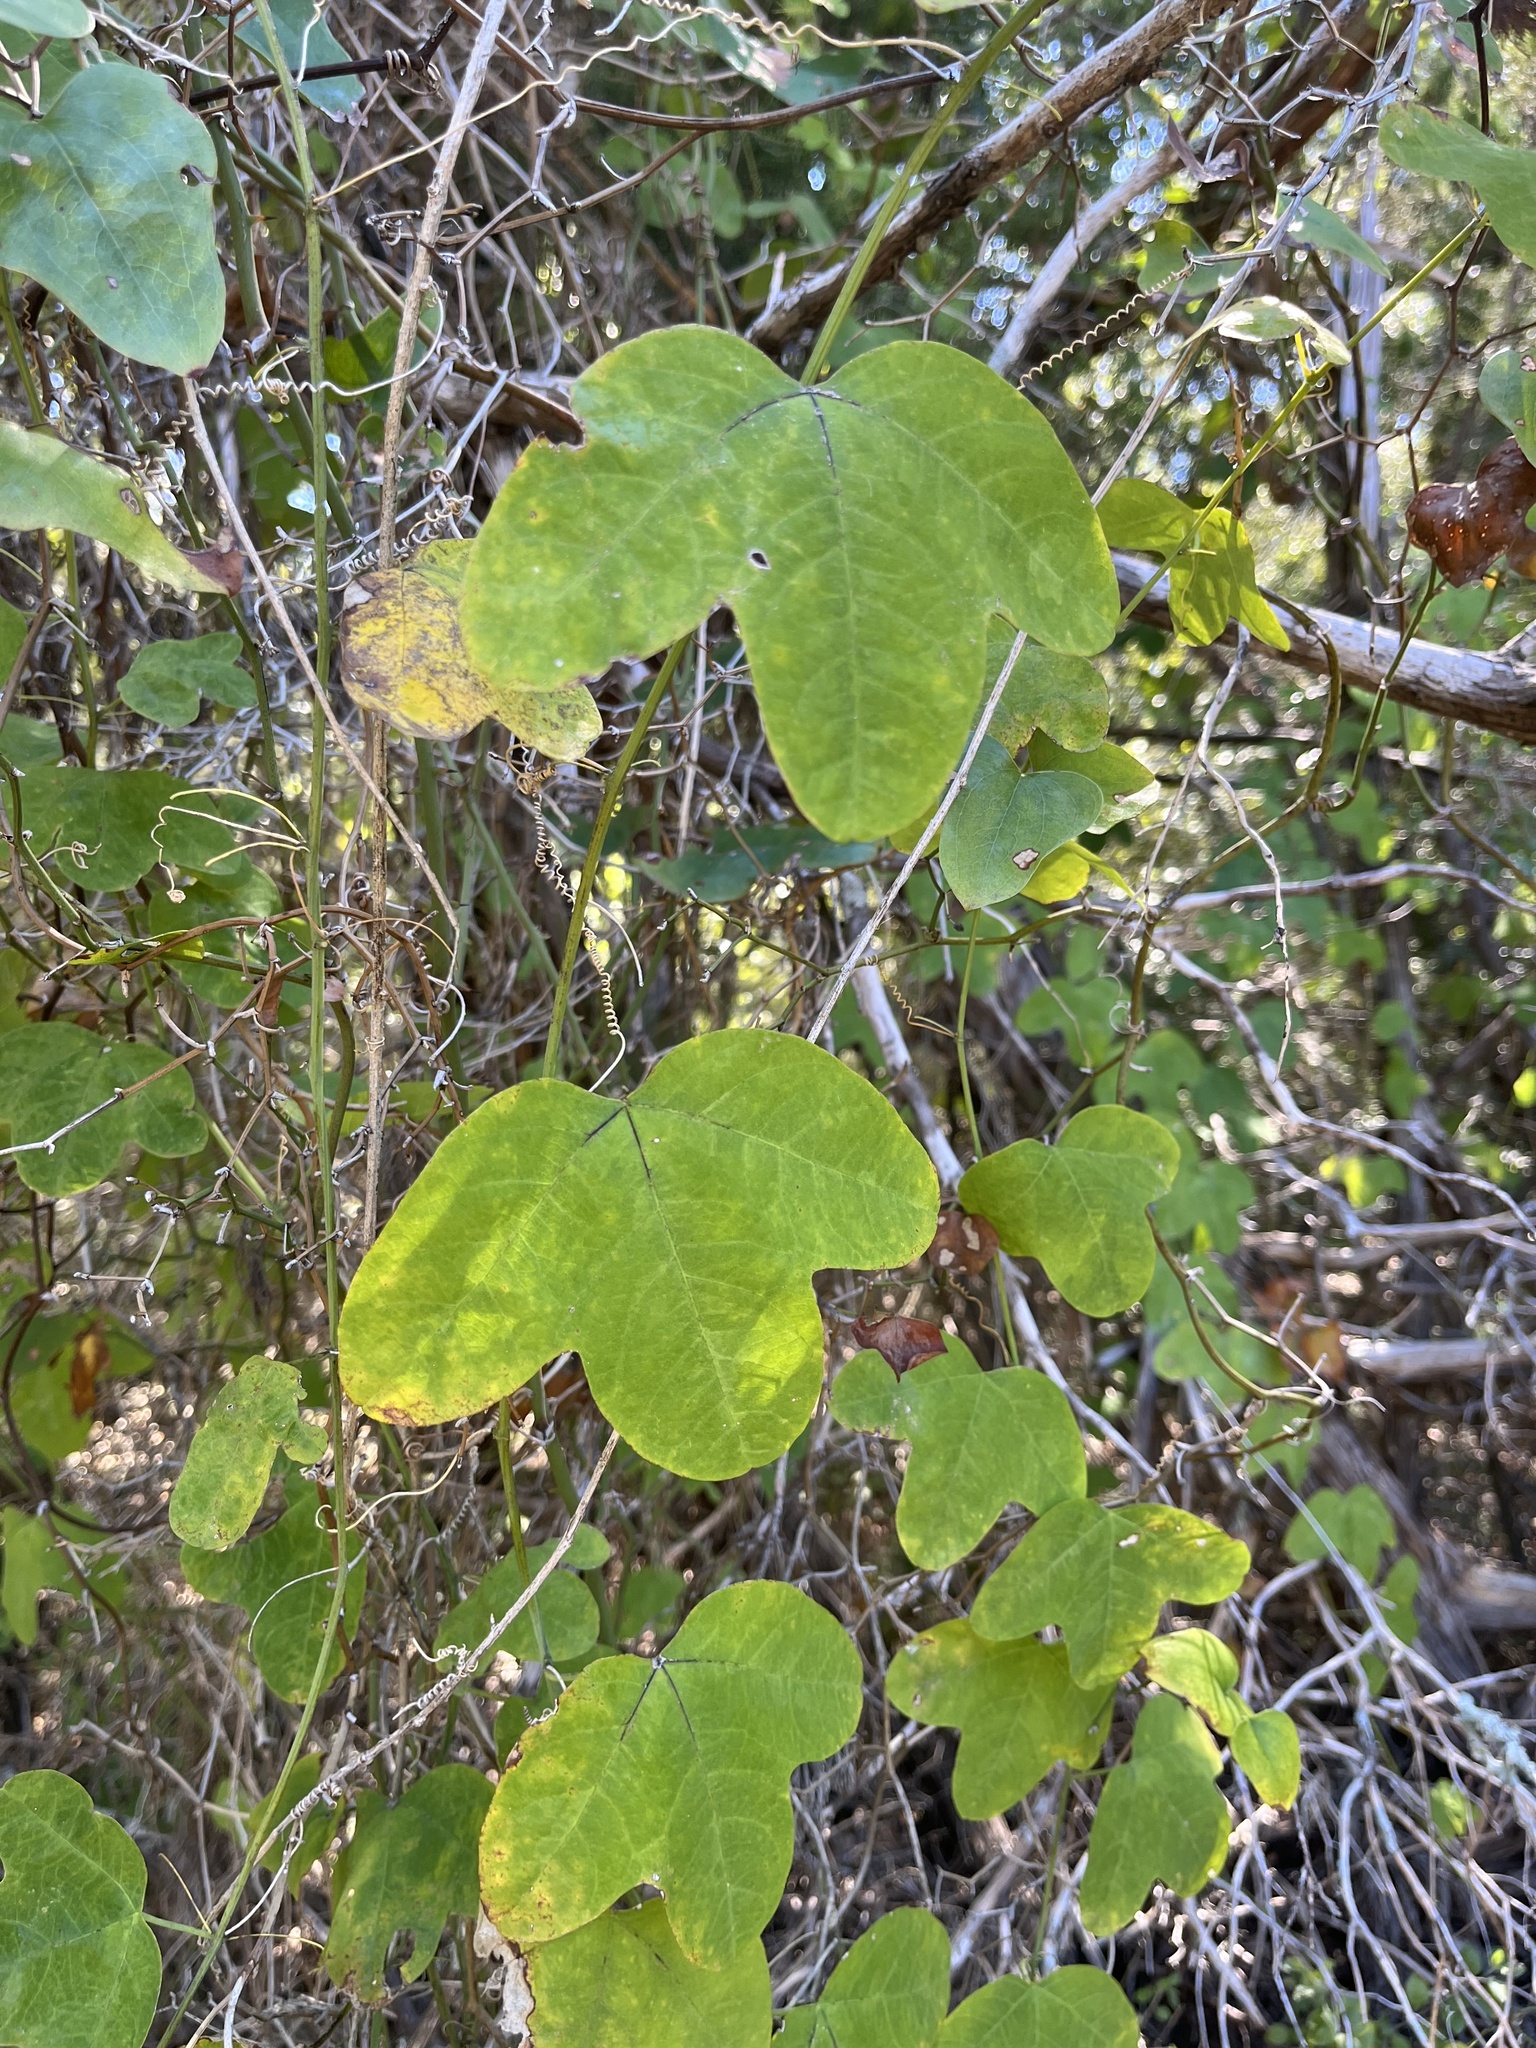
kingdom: Plantae
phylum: Tracheophyta
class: Magnoliopsida
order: Malpighiales
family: Passifloraceae
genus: Passiflora
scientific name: Passiflora lutea
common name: Yellow passionflower
